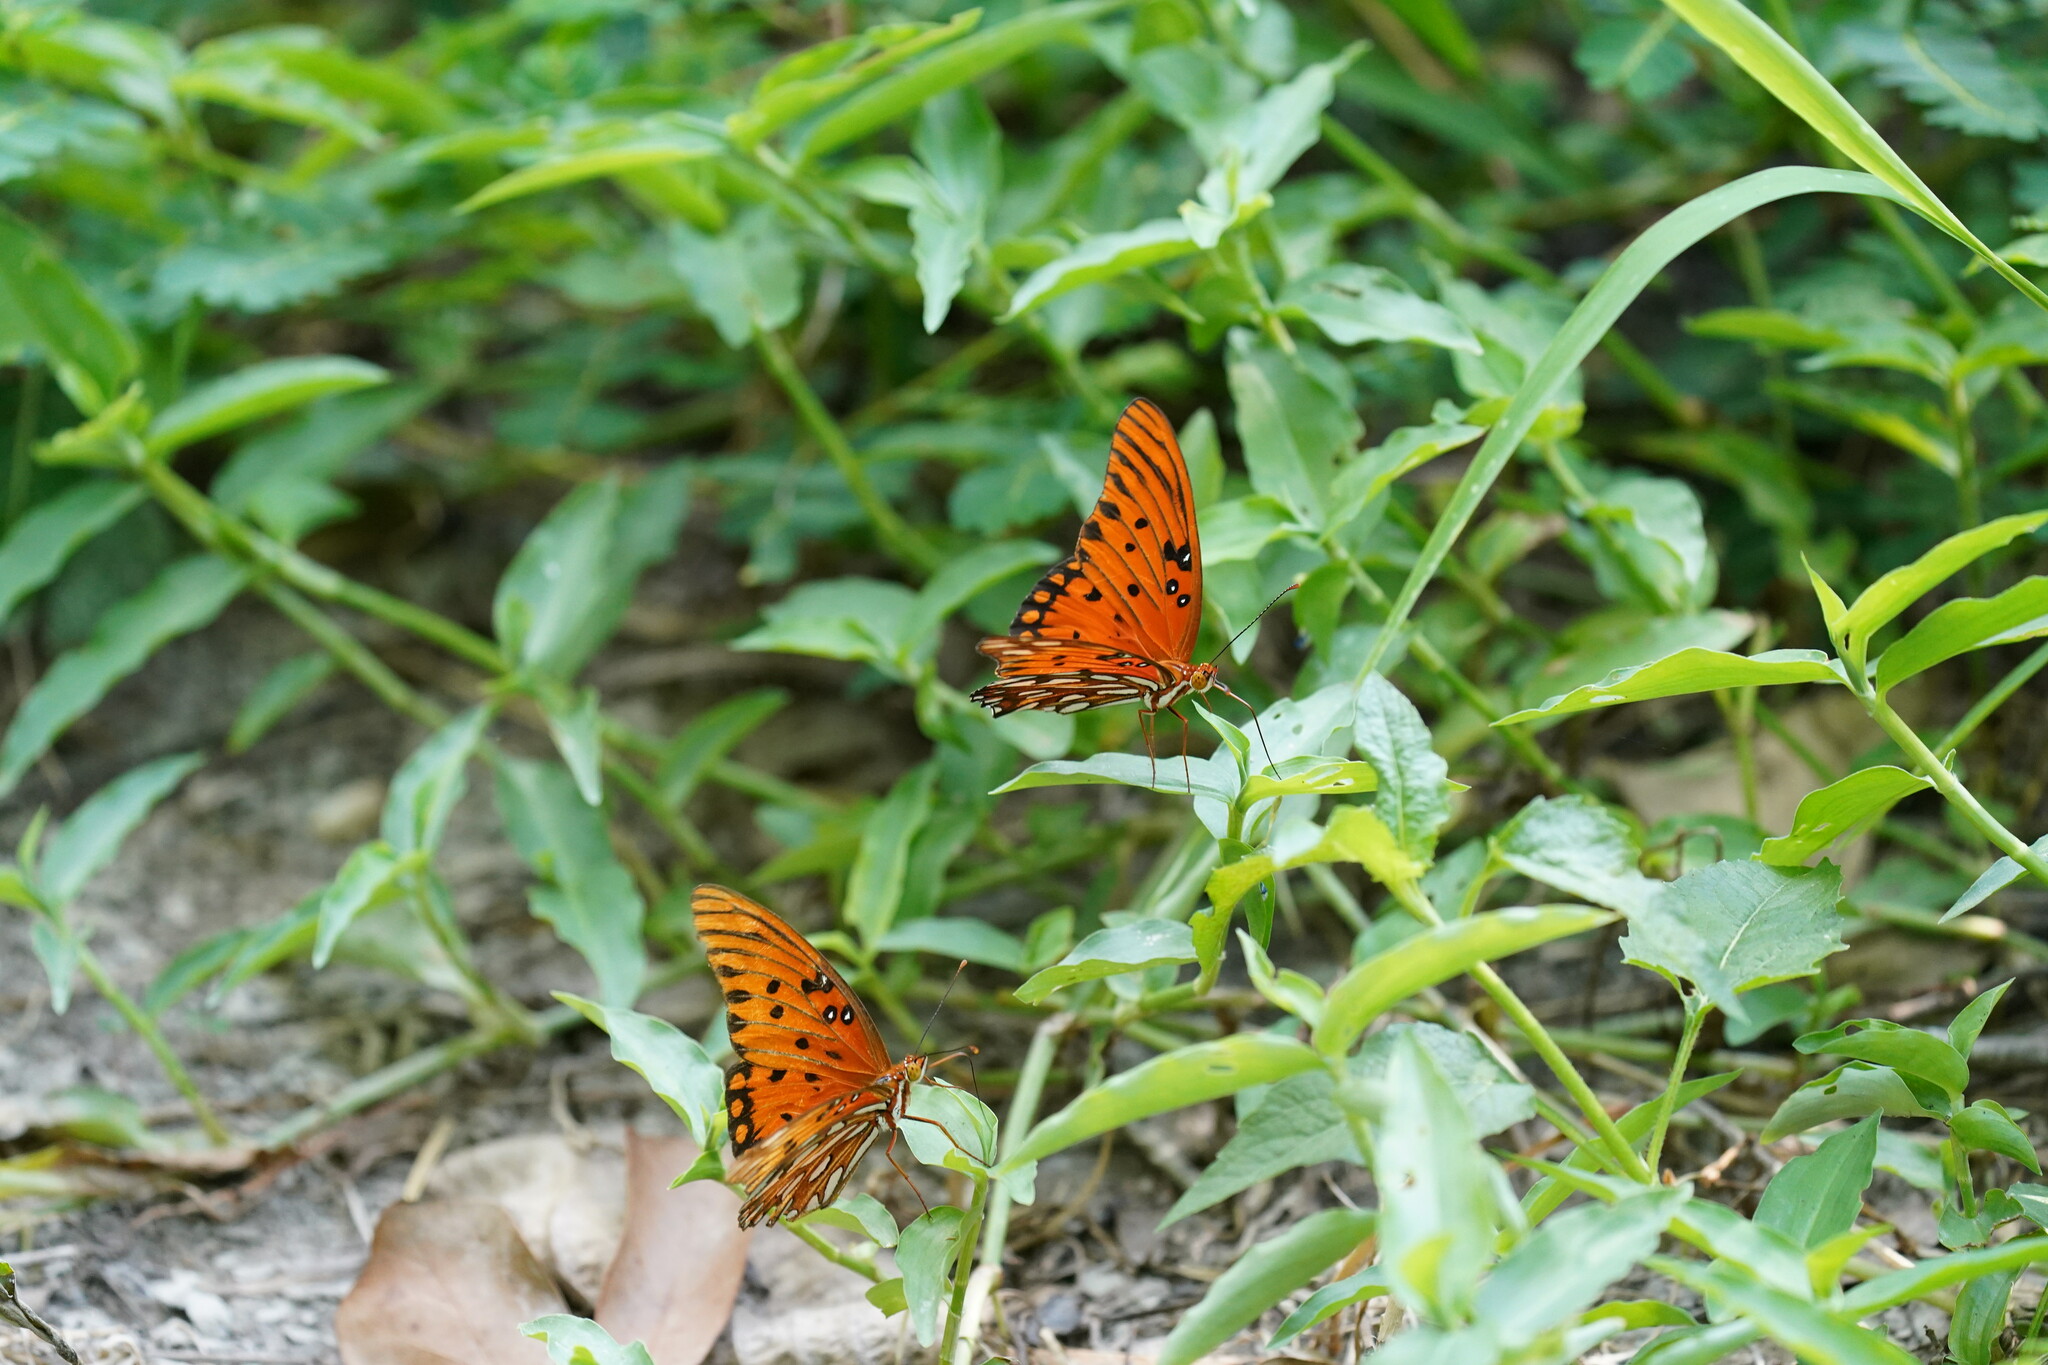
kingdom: Animalia
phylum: Arthropoda
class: Insecta
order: Lepidoptera
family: Nymphalidae
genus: Dione
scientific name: Dione vanillae
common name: Gulf fritillary
